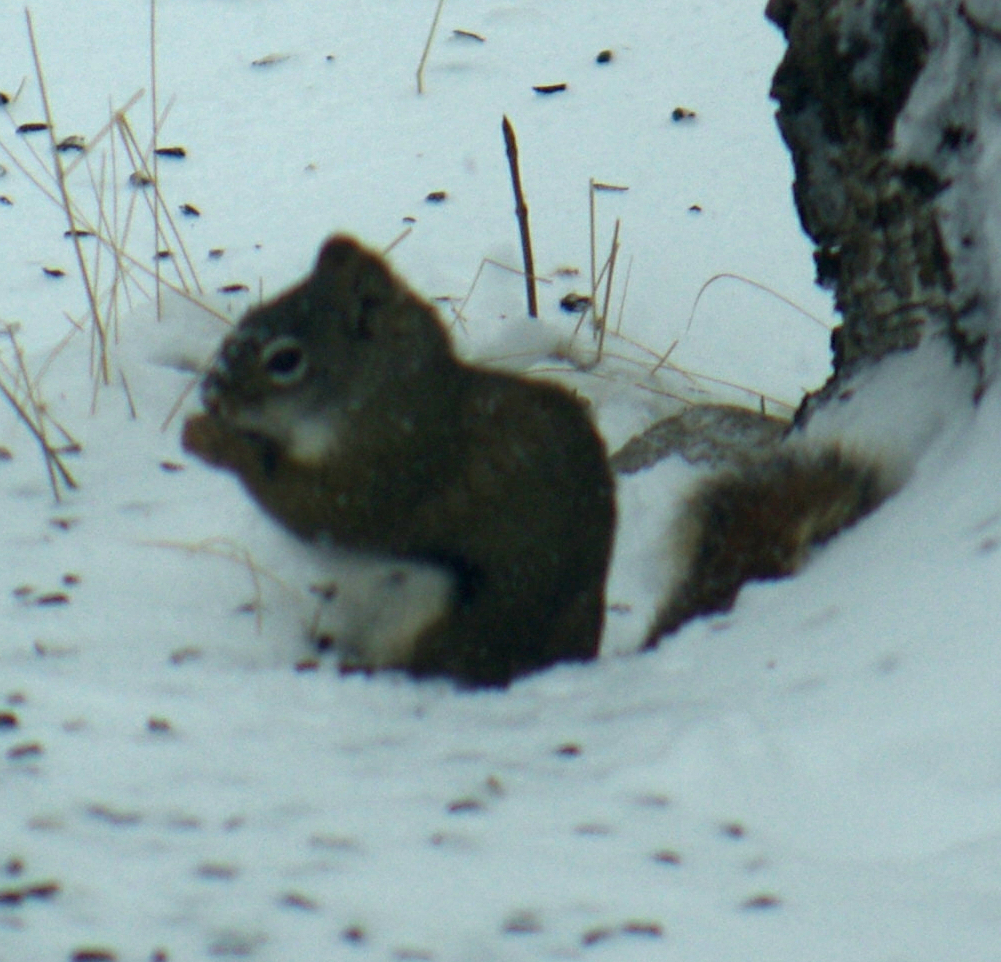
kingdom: Animalia
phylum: Chordata
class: Mammalia
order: Rodentia
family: Sciuridae
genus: Tamiasciurus
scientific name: Tamiasciurus hudsonicus
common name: Red squirrel
